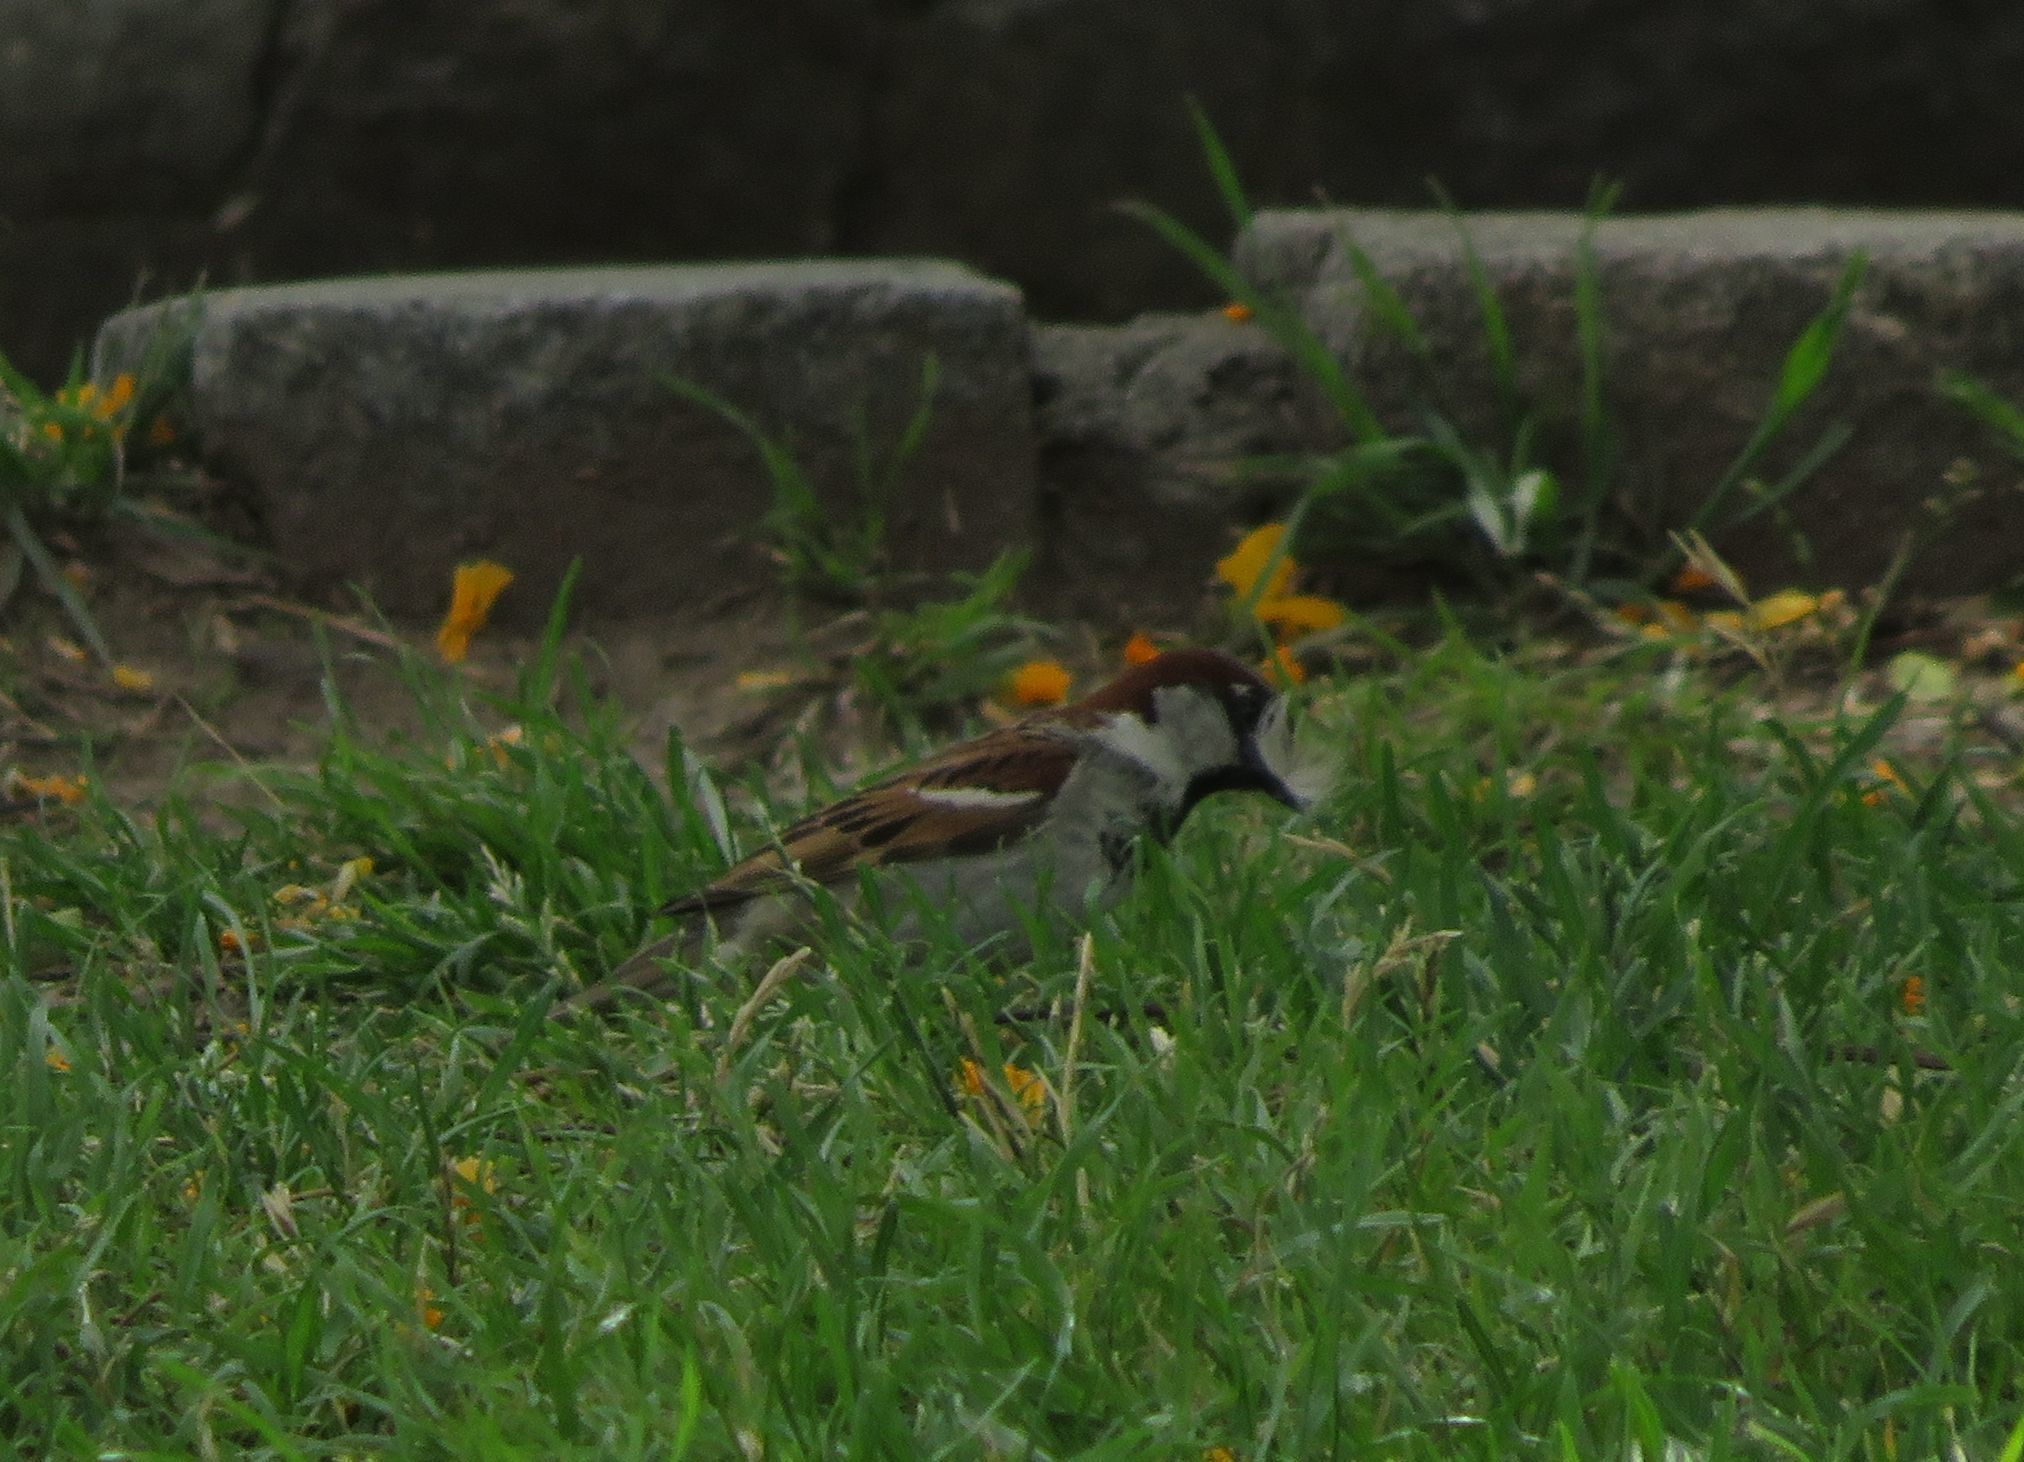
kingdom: Animalia
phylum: Chordata
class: Aves
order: Passeriformes
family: Passeridae
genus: Passer
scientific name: Passer domesticus
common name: House sparrow
